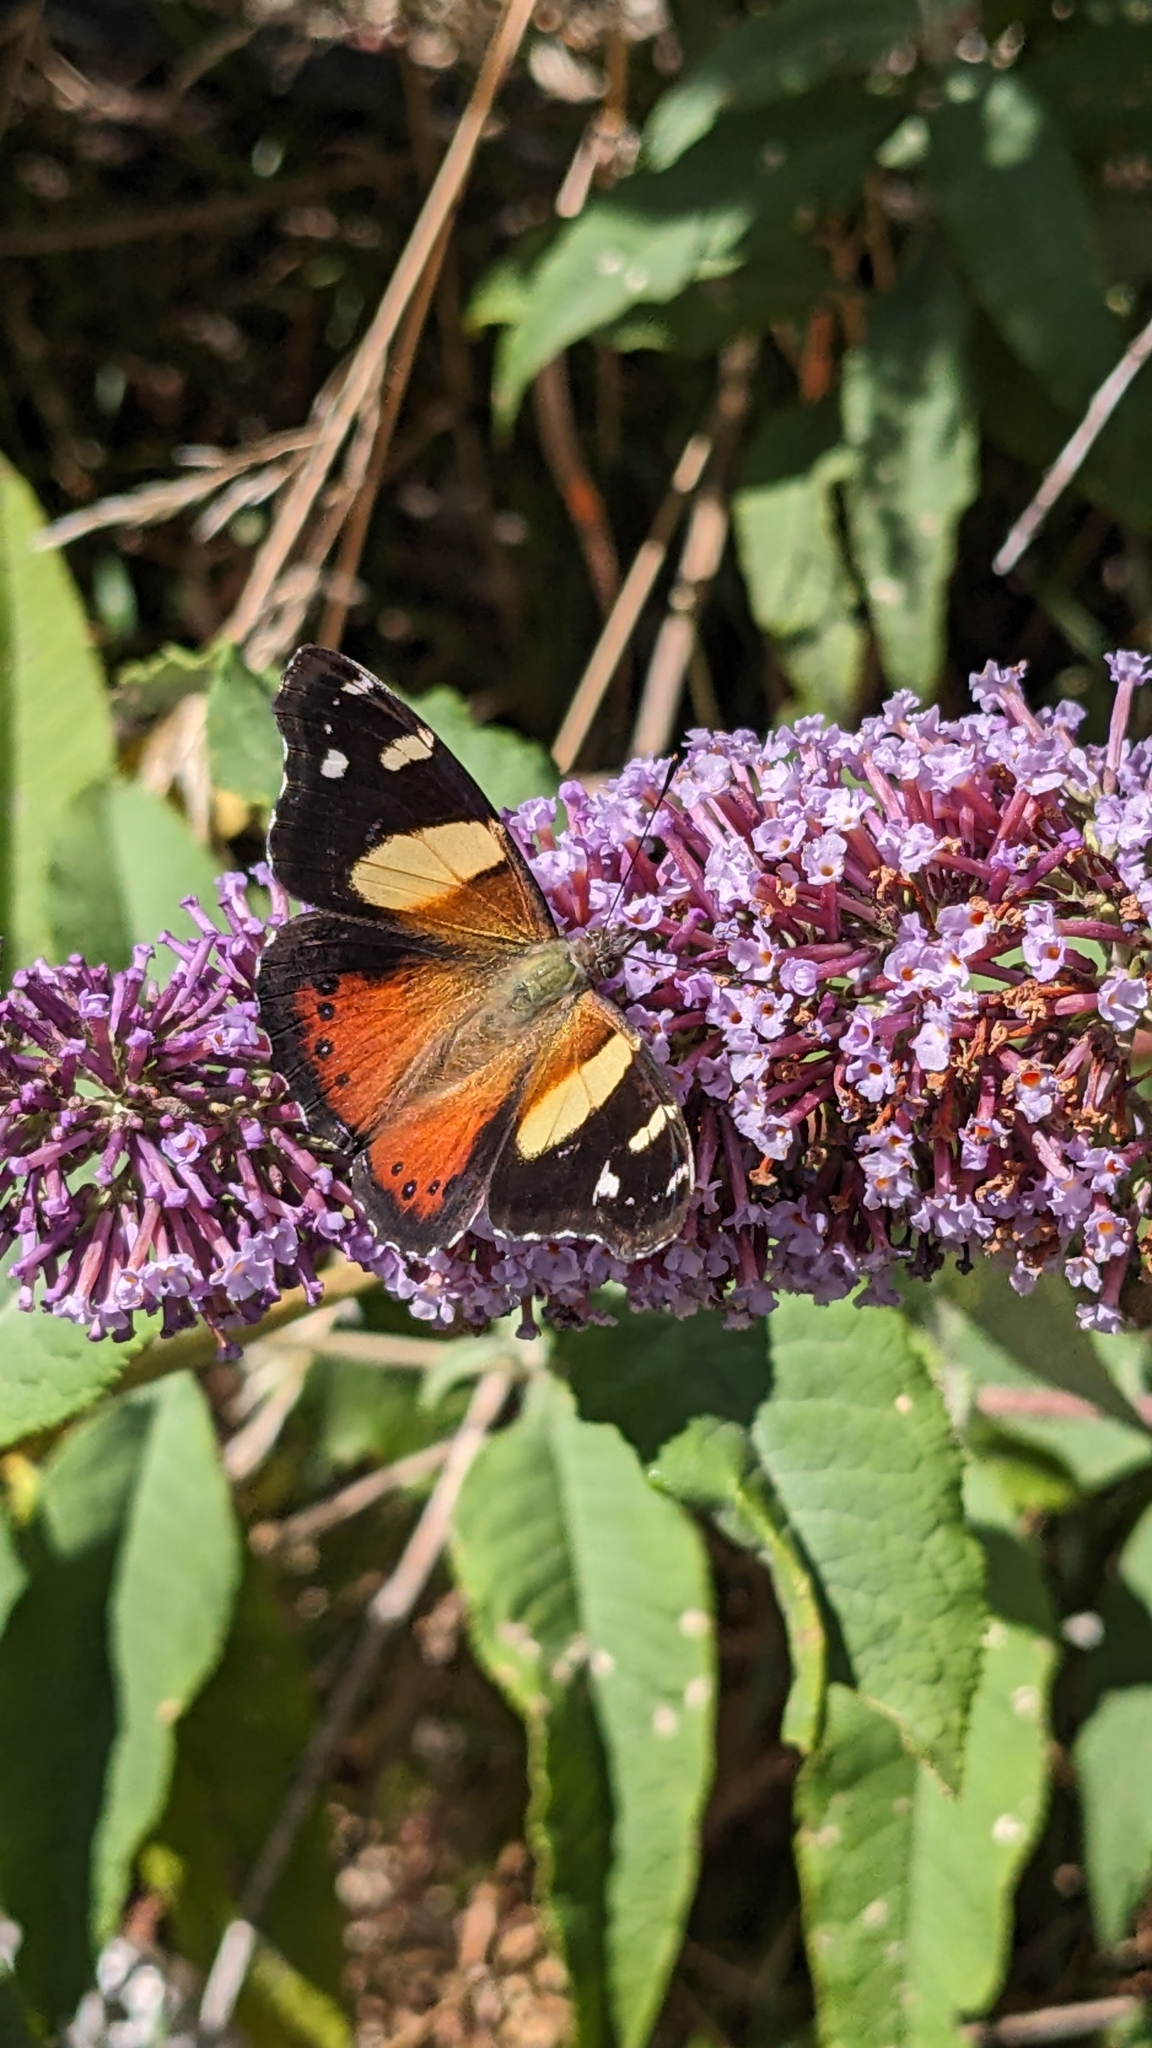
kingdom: Animalia
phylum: Arthropoda
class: Insecta
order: Lepidoptera
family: Nymphalidae
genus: Vanessa
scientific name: Vanessa itea
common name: Yellow admiral
